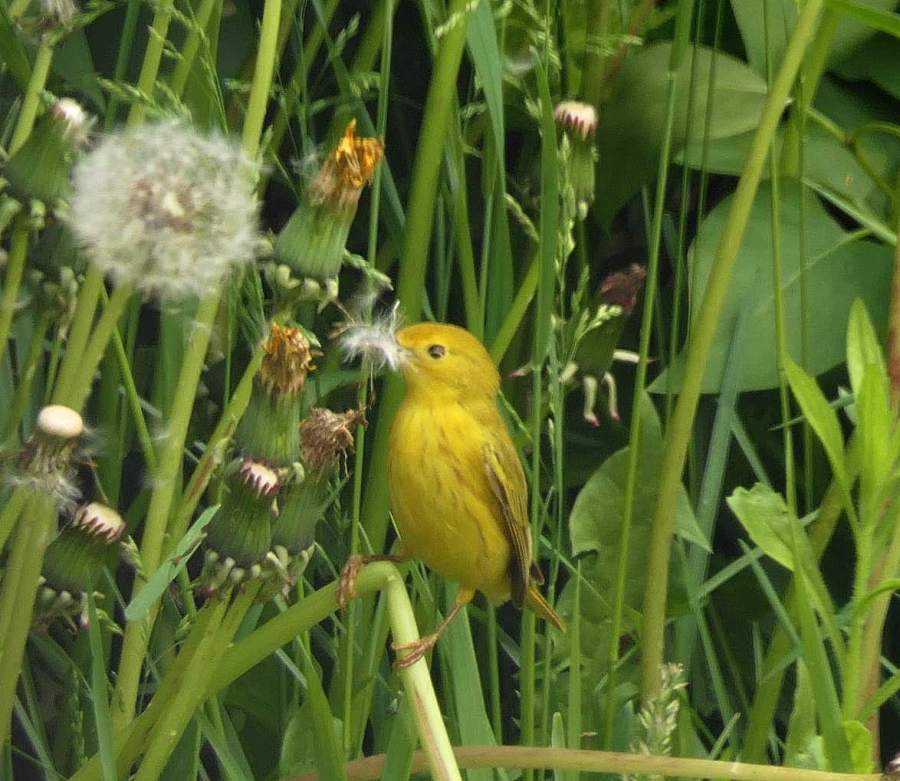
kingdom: Animalia
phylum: Chordata
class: Aves
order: Passeriformes
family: Parulidae
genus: Setophaga
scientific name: Setophaga petechia
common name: Yellow warbler
